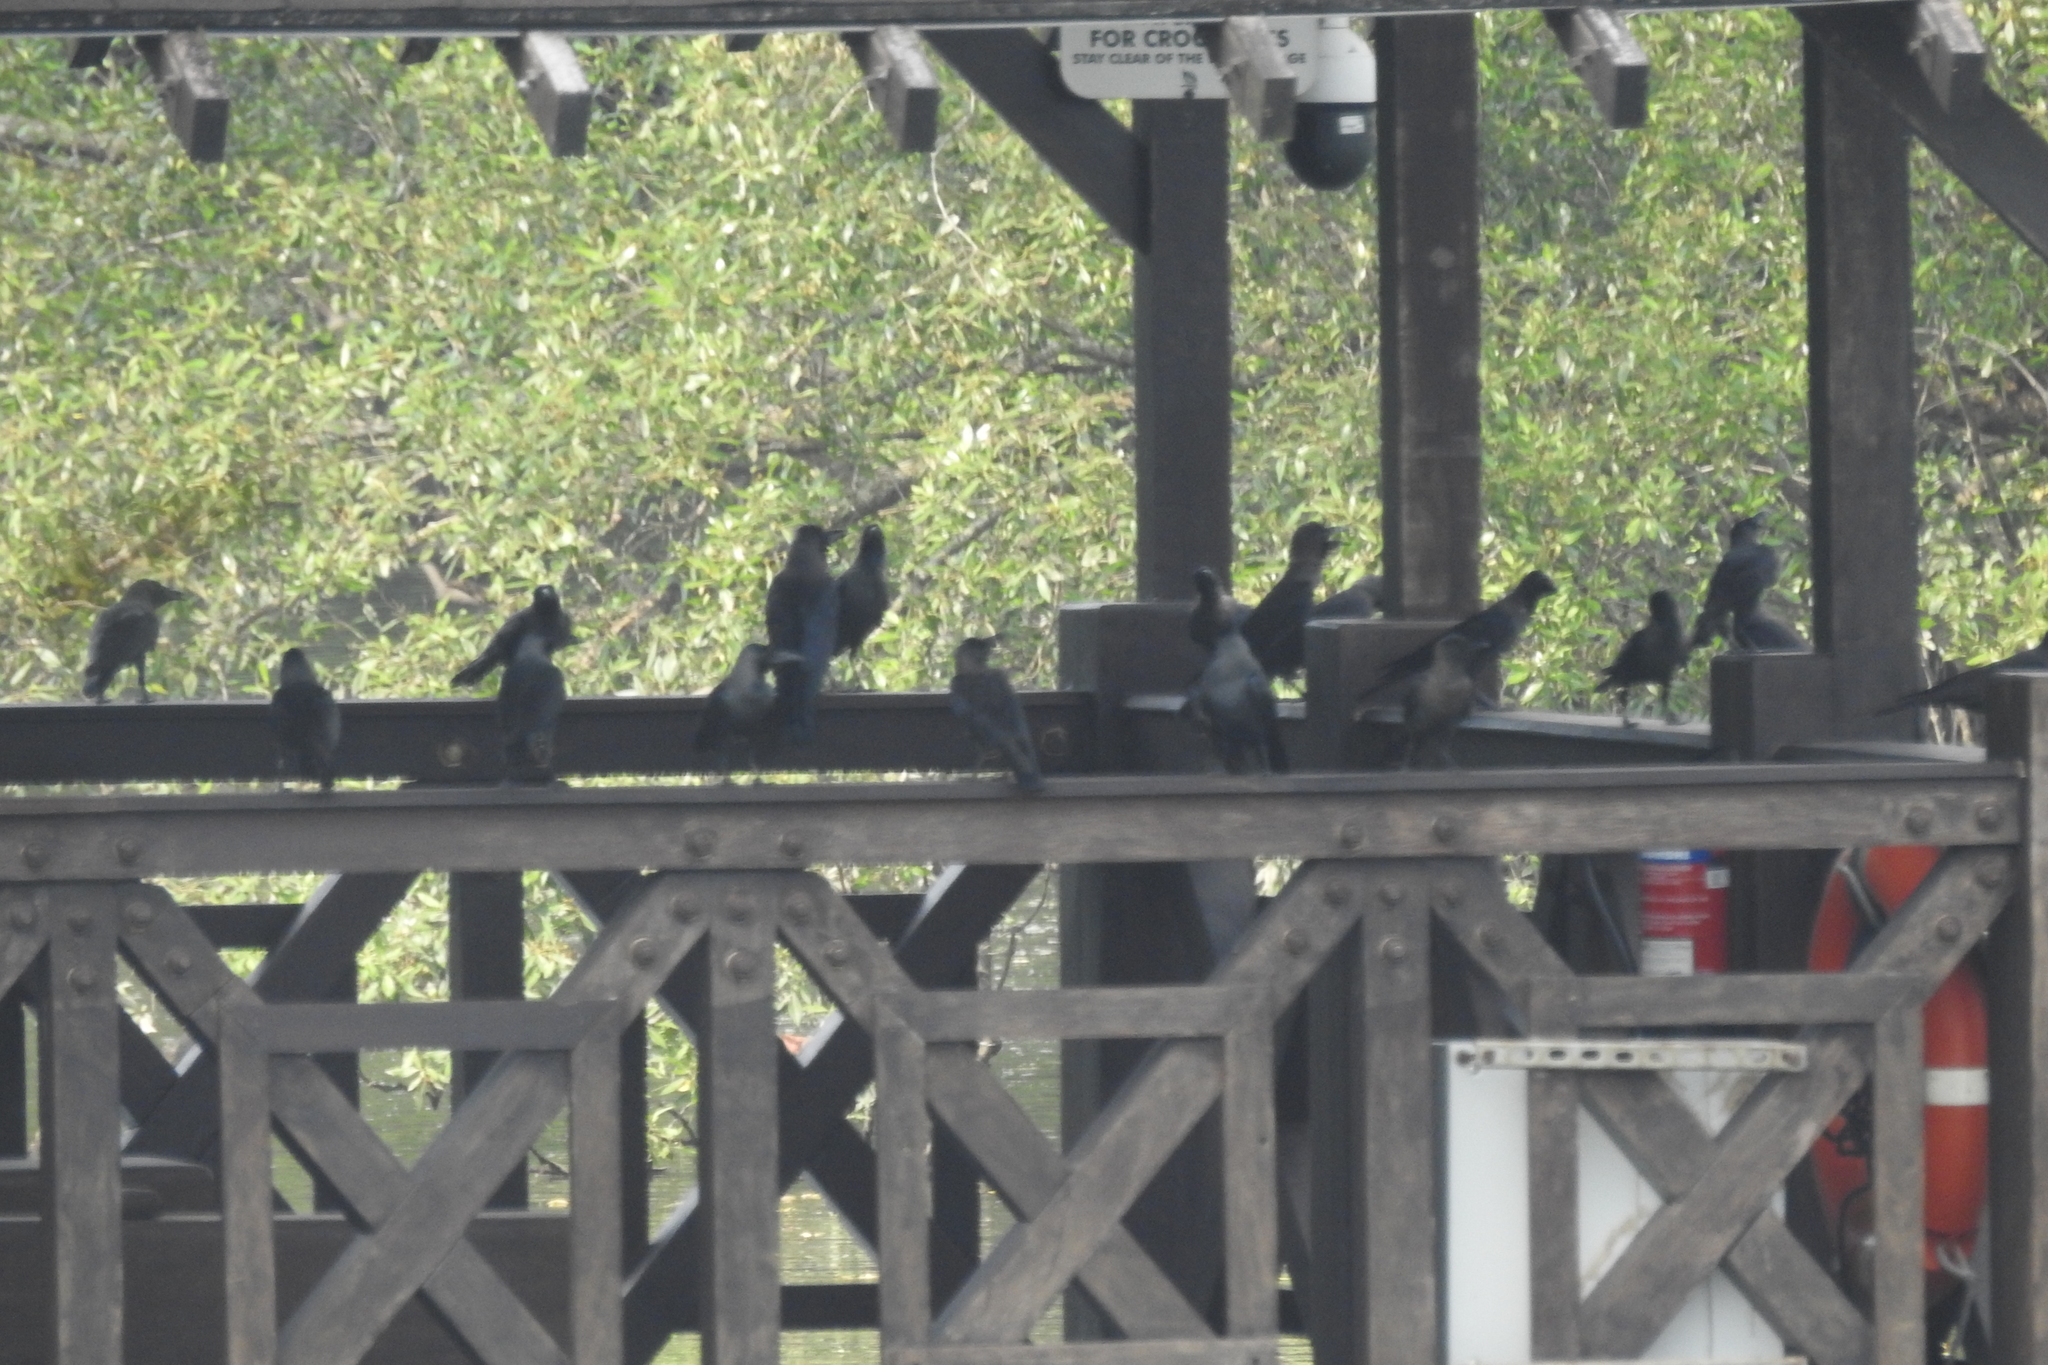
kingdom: Animalia
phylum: Chordata
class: Aves
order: Passeriformes
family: Corvidae
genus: Corvus
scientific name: Corvus splendens
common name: House crow
